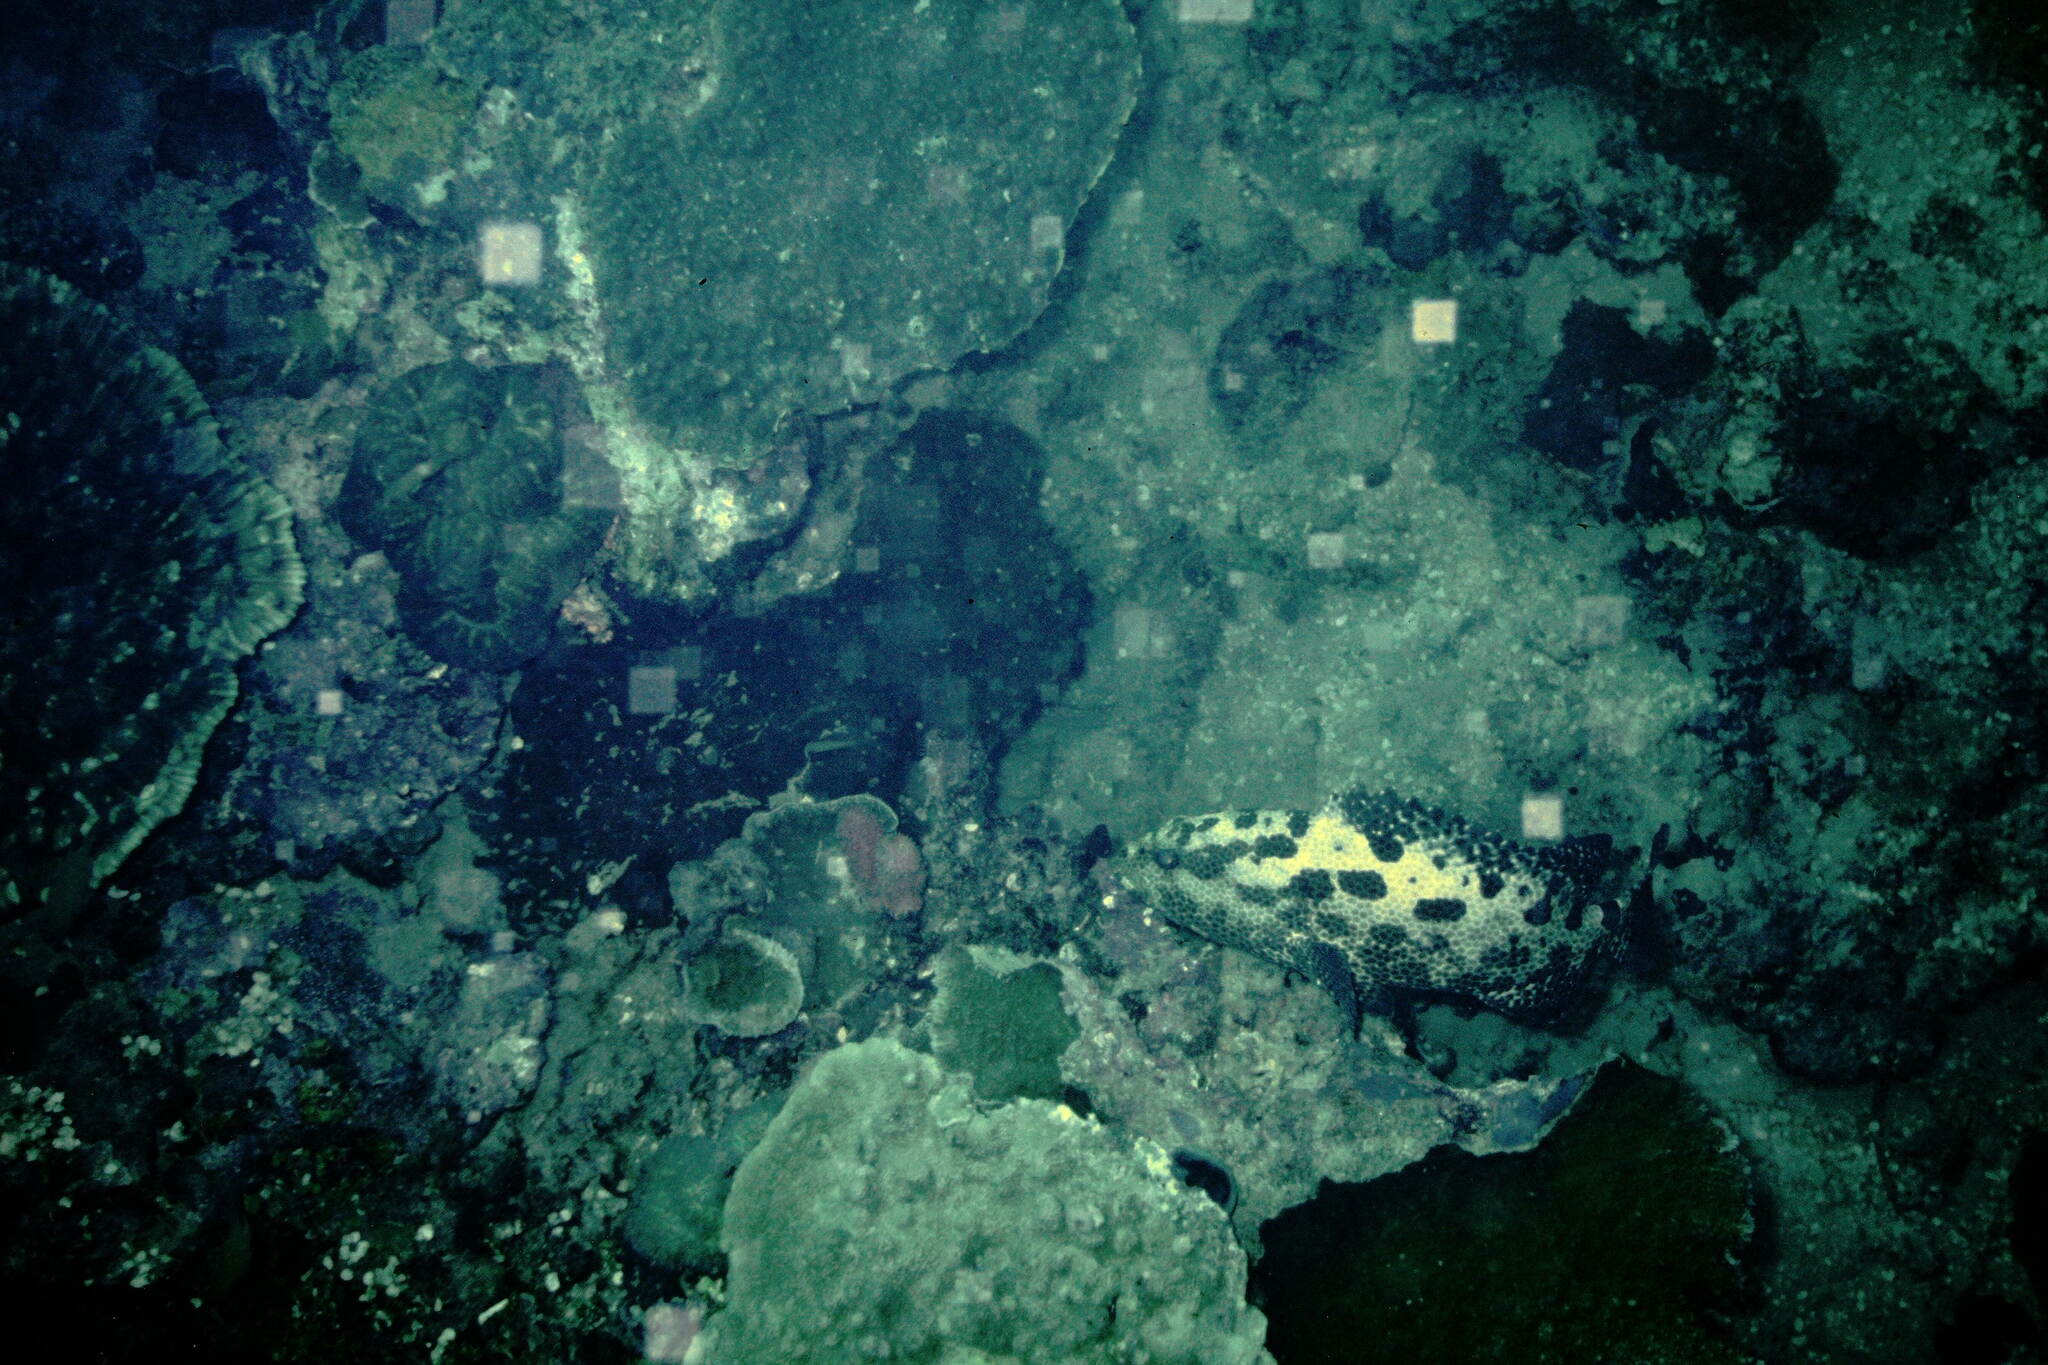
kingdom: Animalia
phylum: Chordata
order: Perciformes
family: Serranidae
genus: Epinephelus
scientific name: Epinephelus polyphekadion
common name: Camouflage grouper
